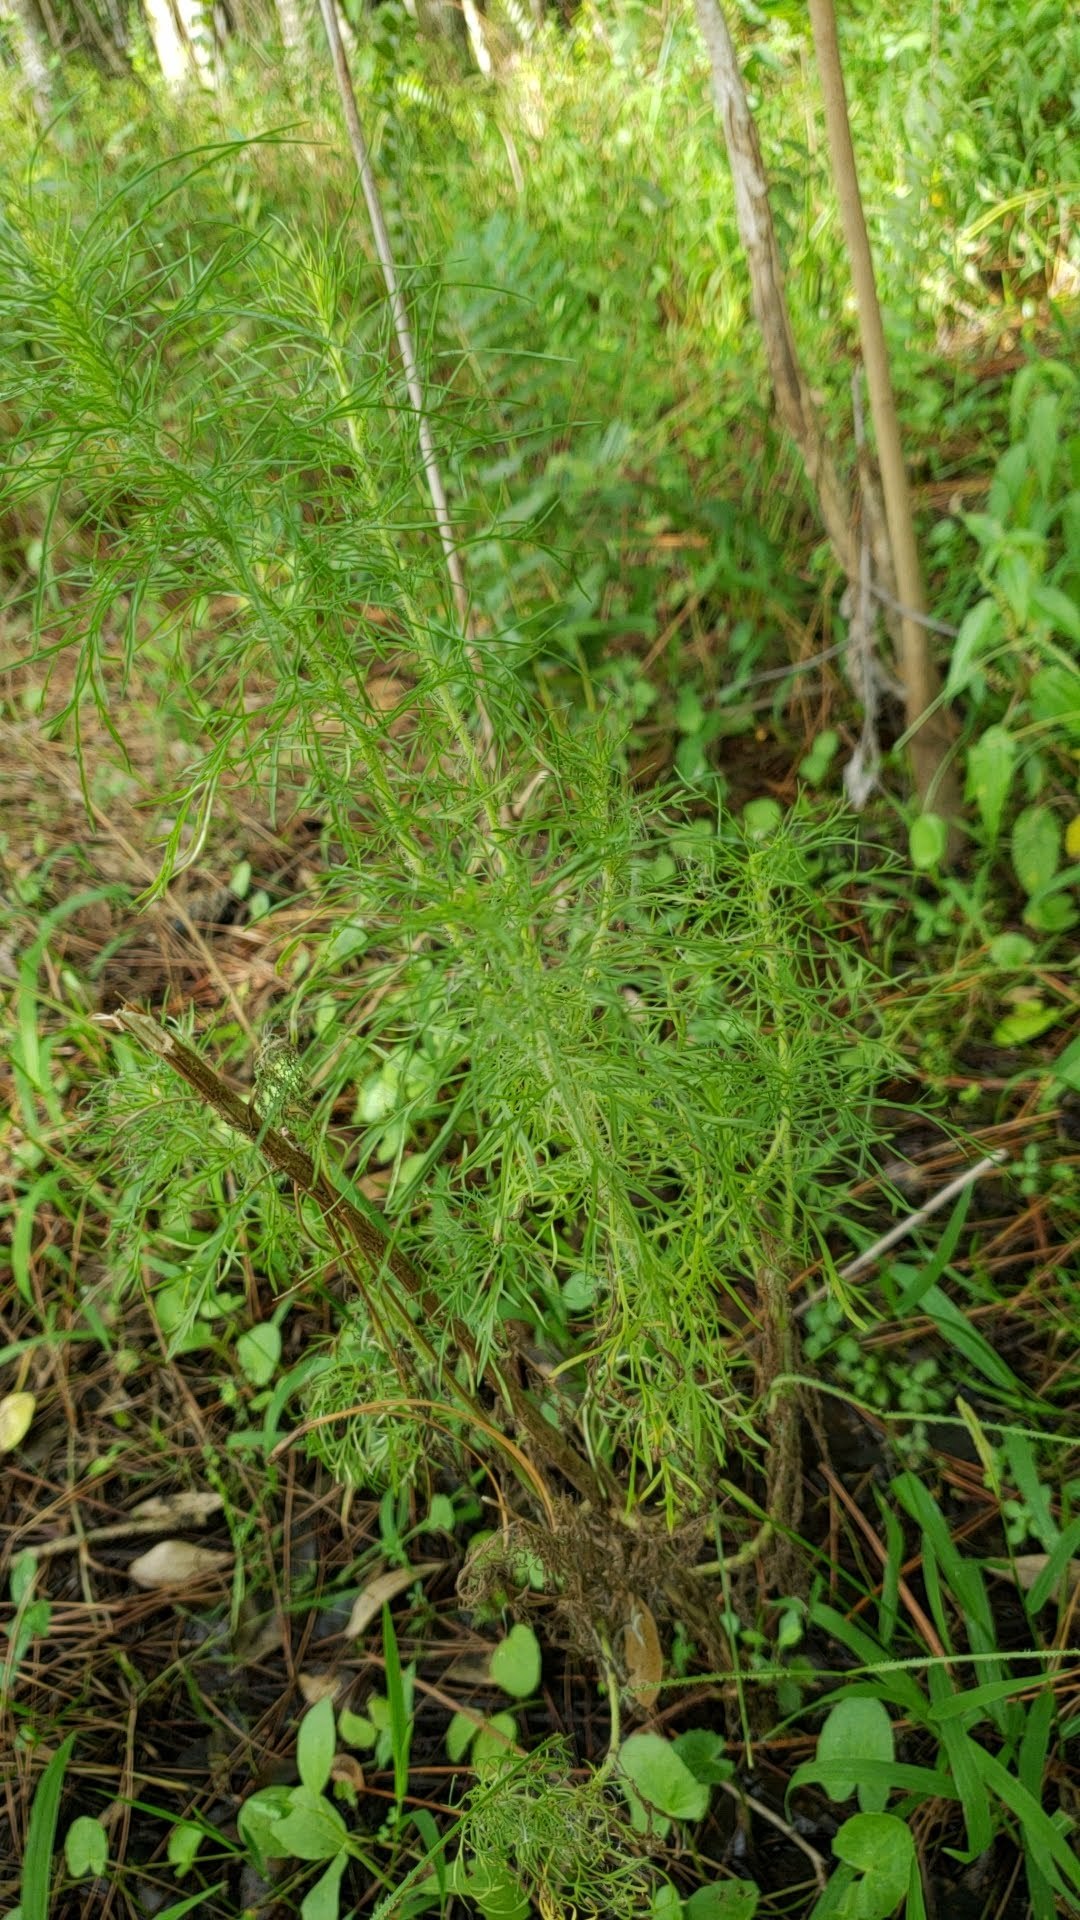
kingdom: Plantae
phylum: Tracheophyta
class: Magnoliopsida
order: Asterales
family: Asteraceae
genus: Eupatorium
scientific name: Eupatorium compositifolium
